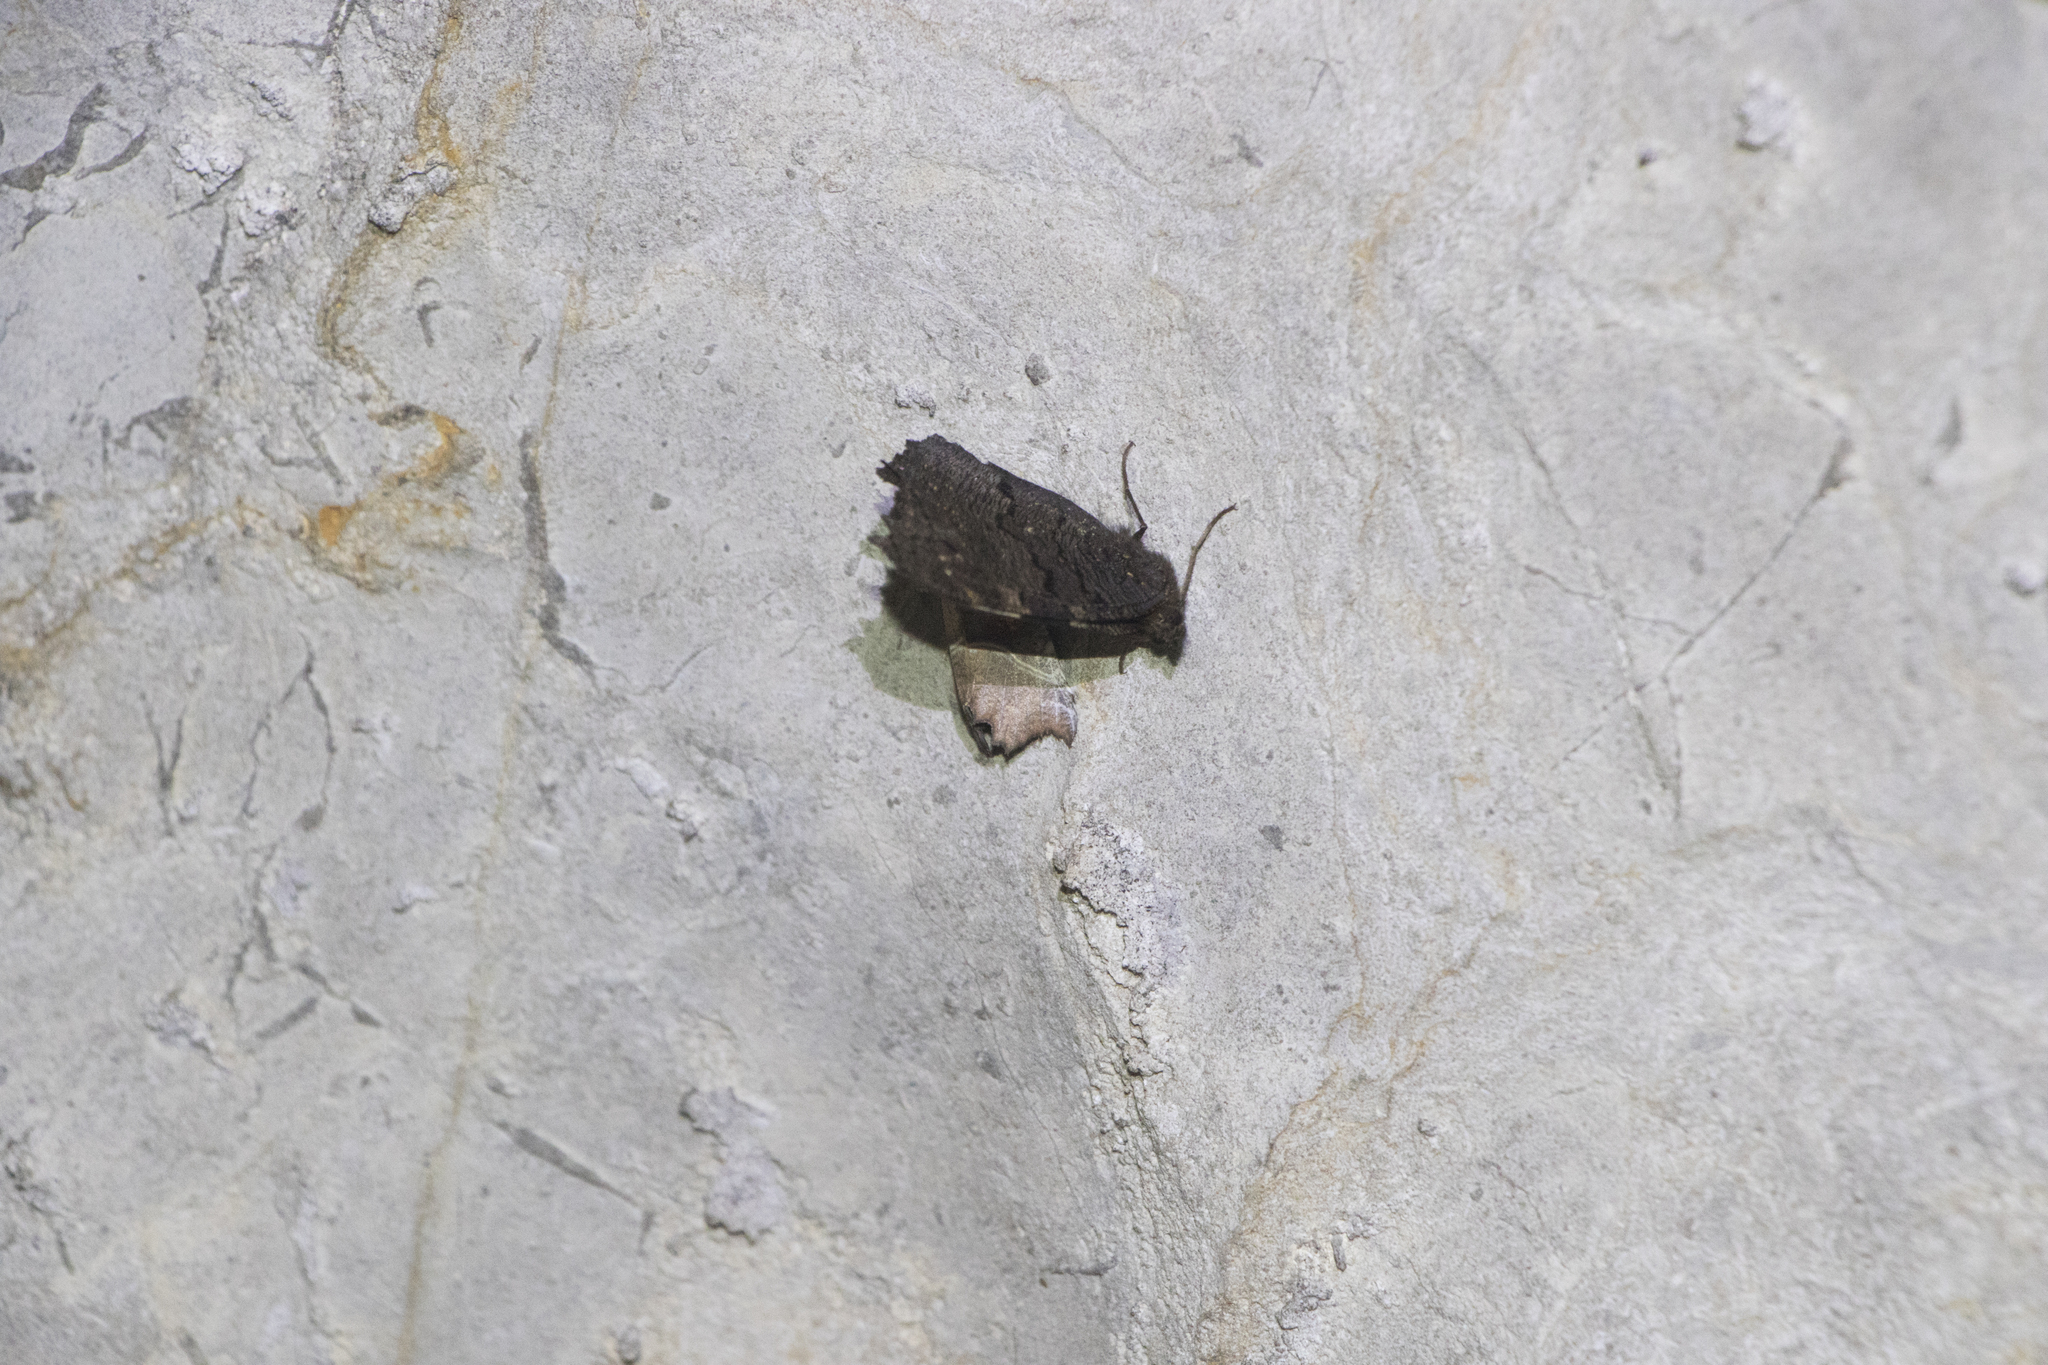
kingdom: Animalia
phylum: Arthropoda
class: Insecta
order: Lepidoptera
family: Erebidae
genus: Scoliopteryx
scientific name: Scoliopteryx libatrix
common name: Herald
